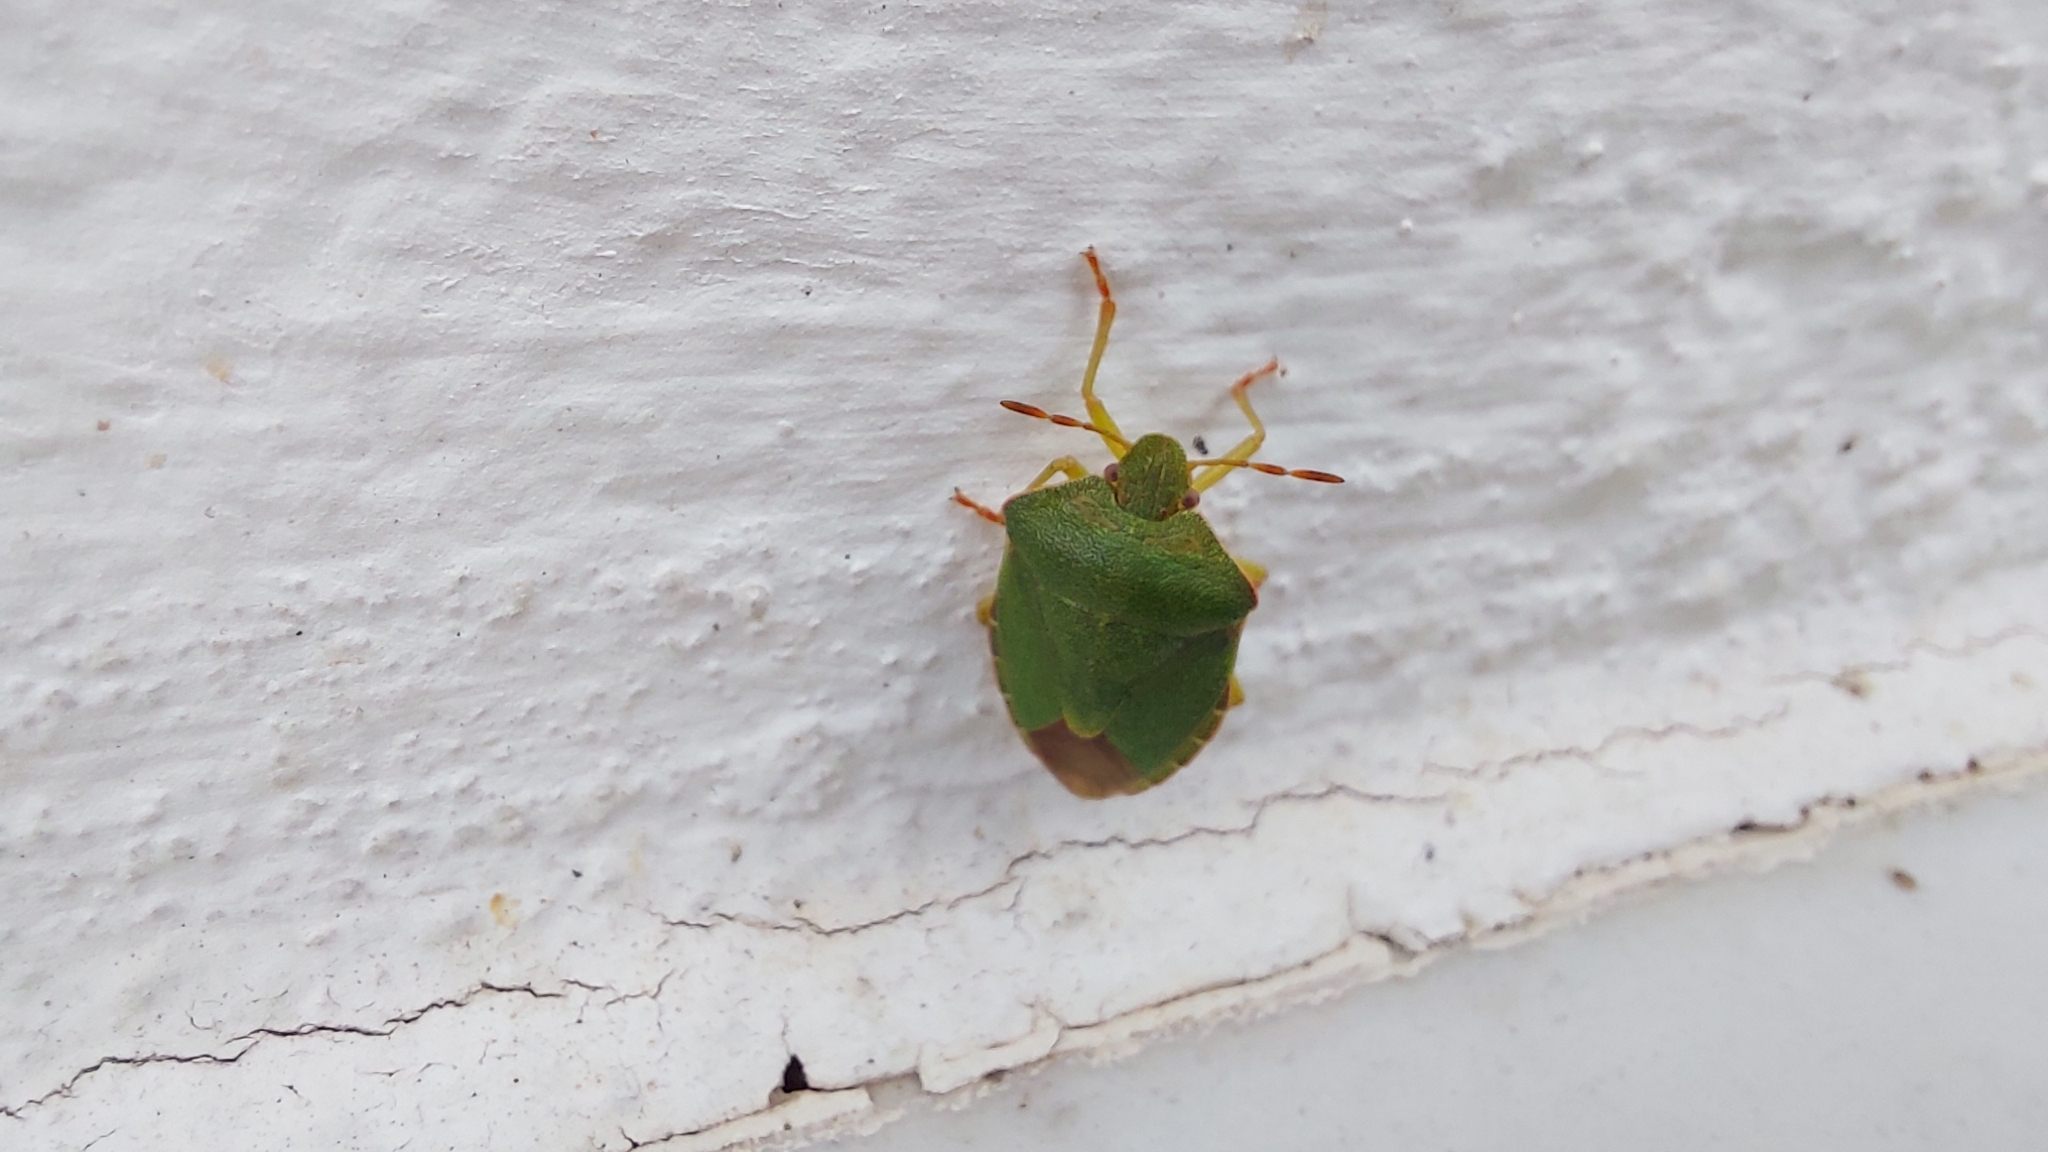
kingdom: Animalia
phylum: Arthropoda
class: Insecta
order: Hemiptera
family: Pentatomidae
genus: Palomena
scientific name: Palomena prasina
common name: Green shieldbug
